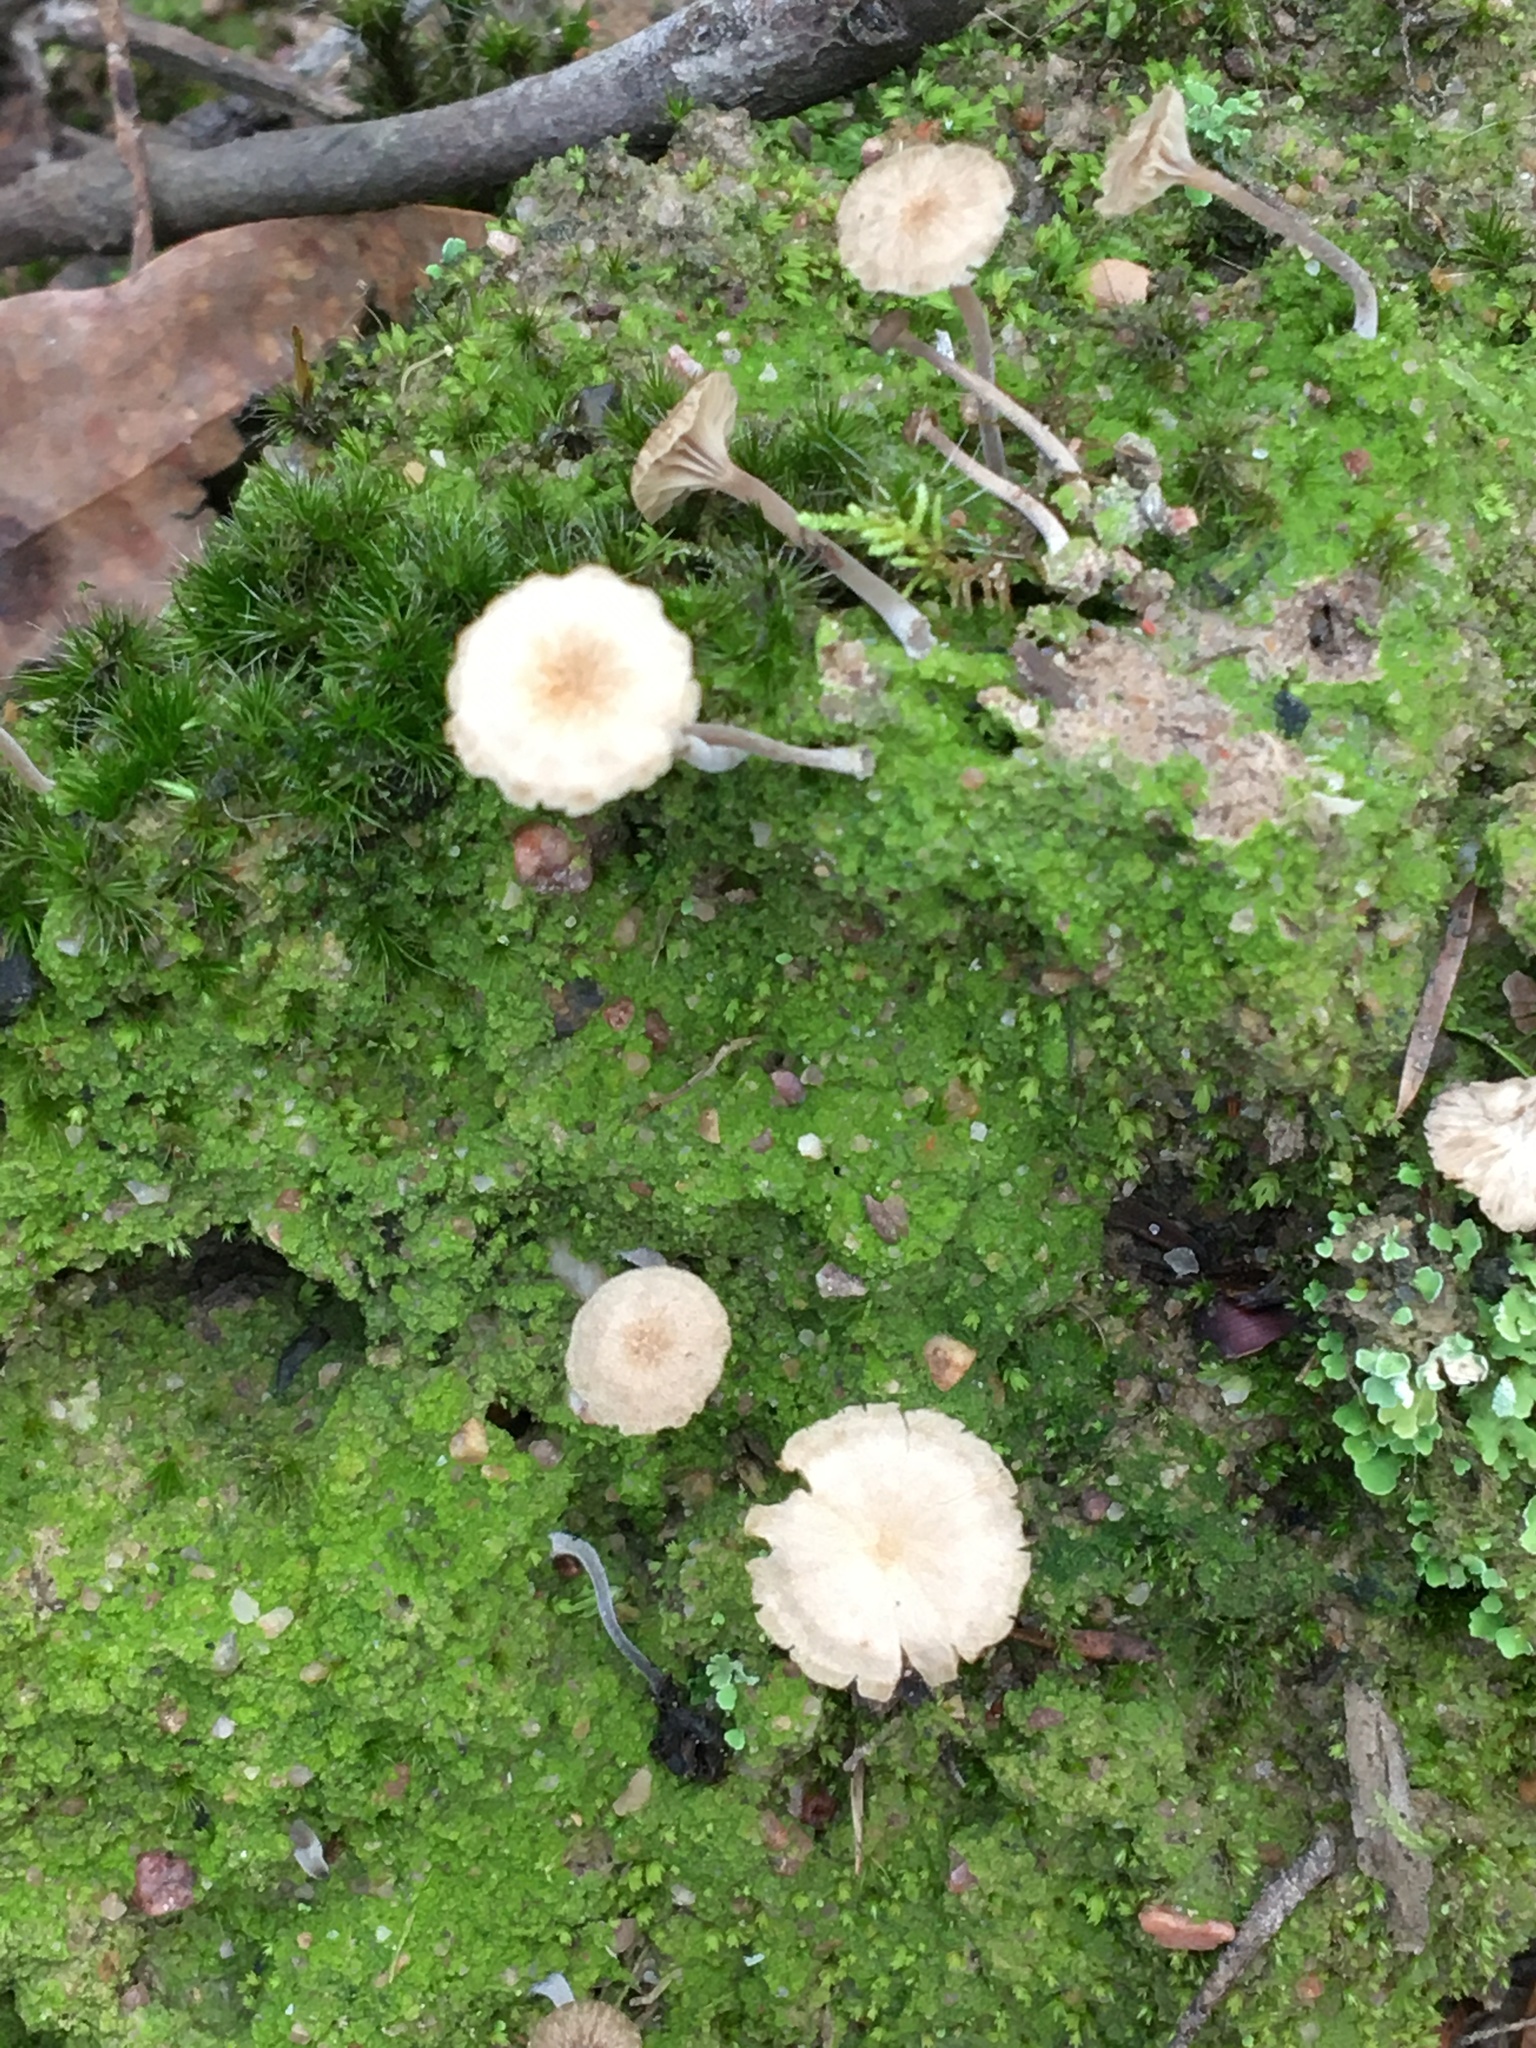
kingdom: Fungi
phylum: Basidiomycota
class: Agaricomycetes
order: Agaricales
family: Hygrophoraceae
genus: Lichenomphalia
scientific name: Lichenomphalia
